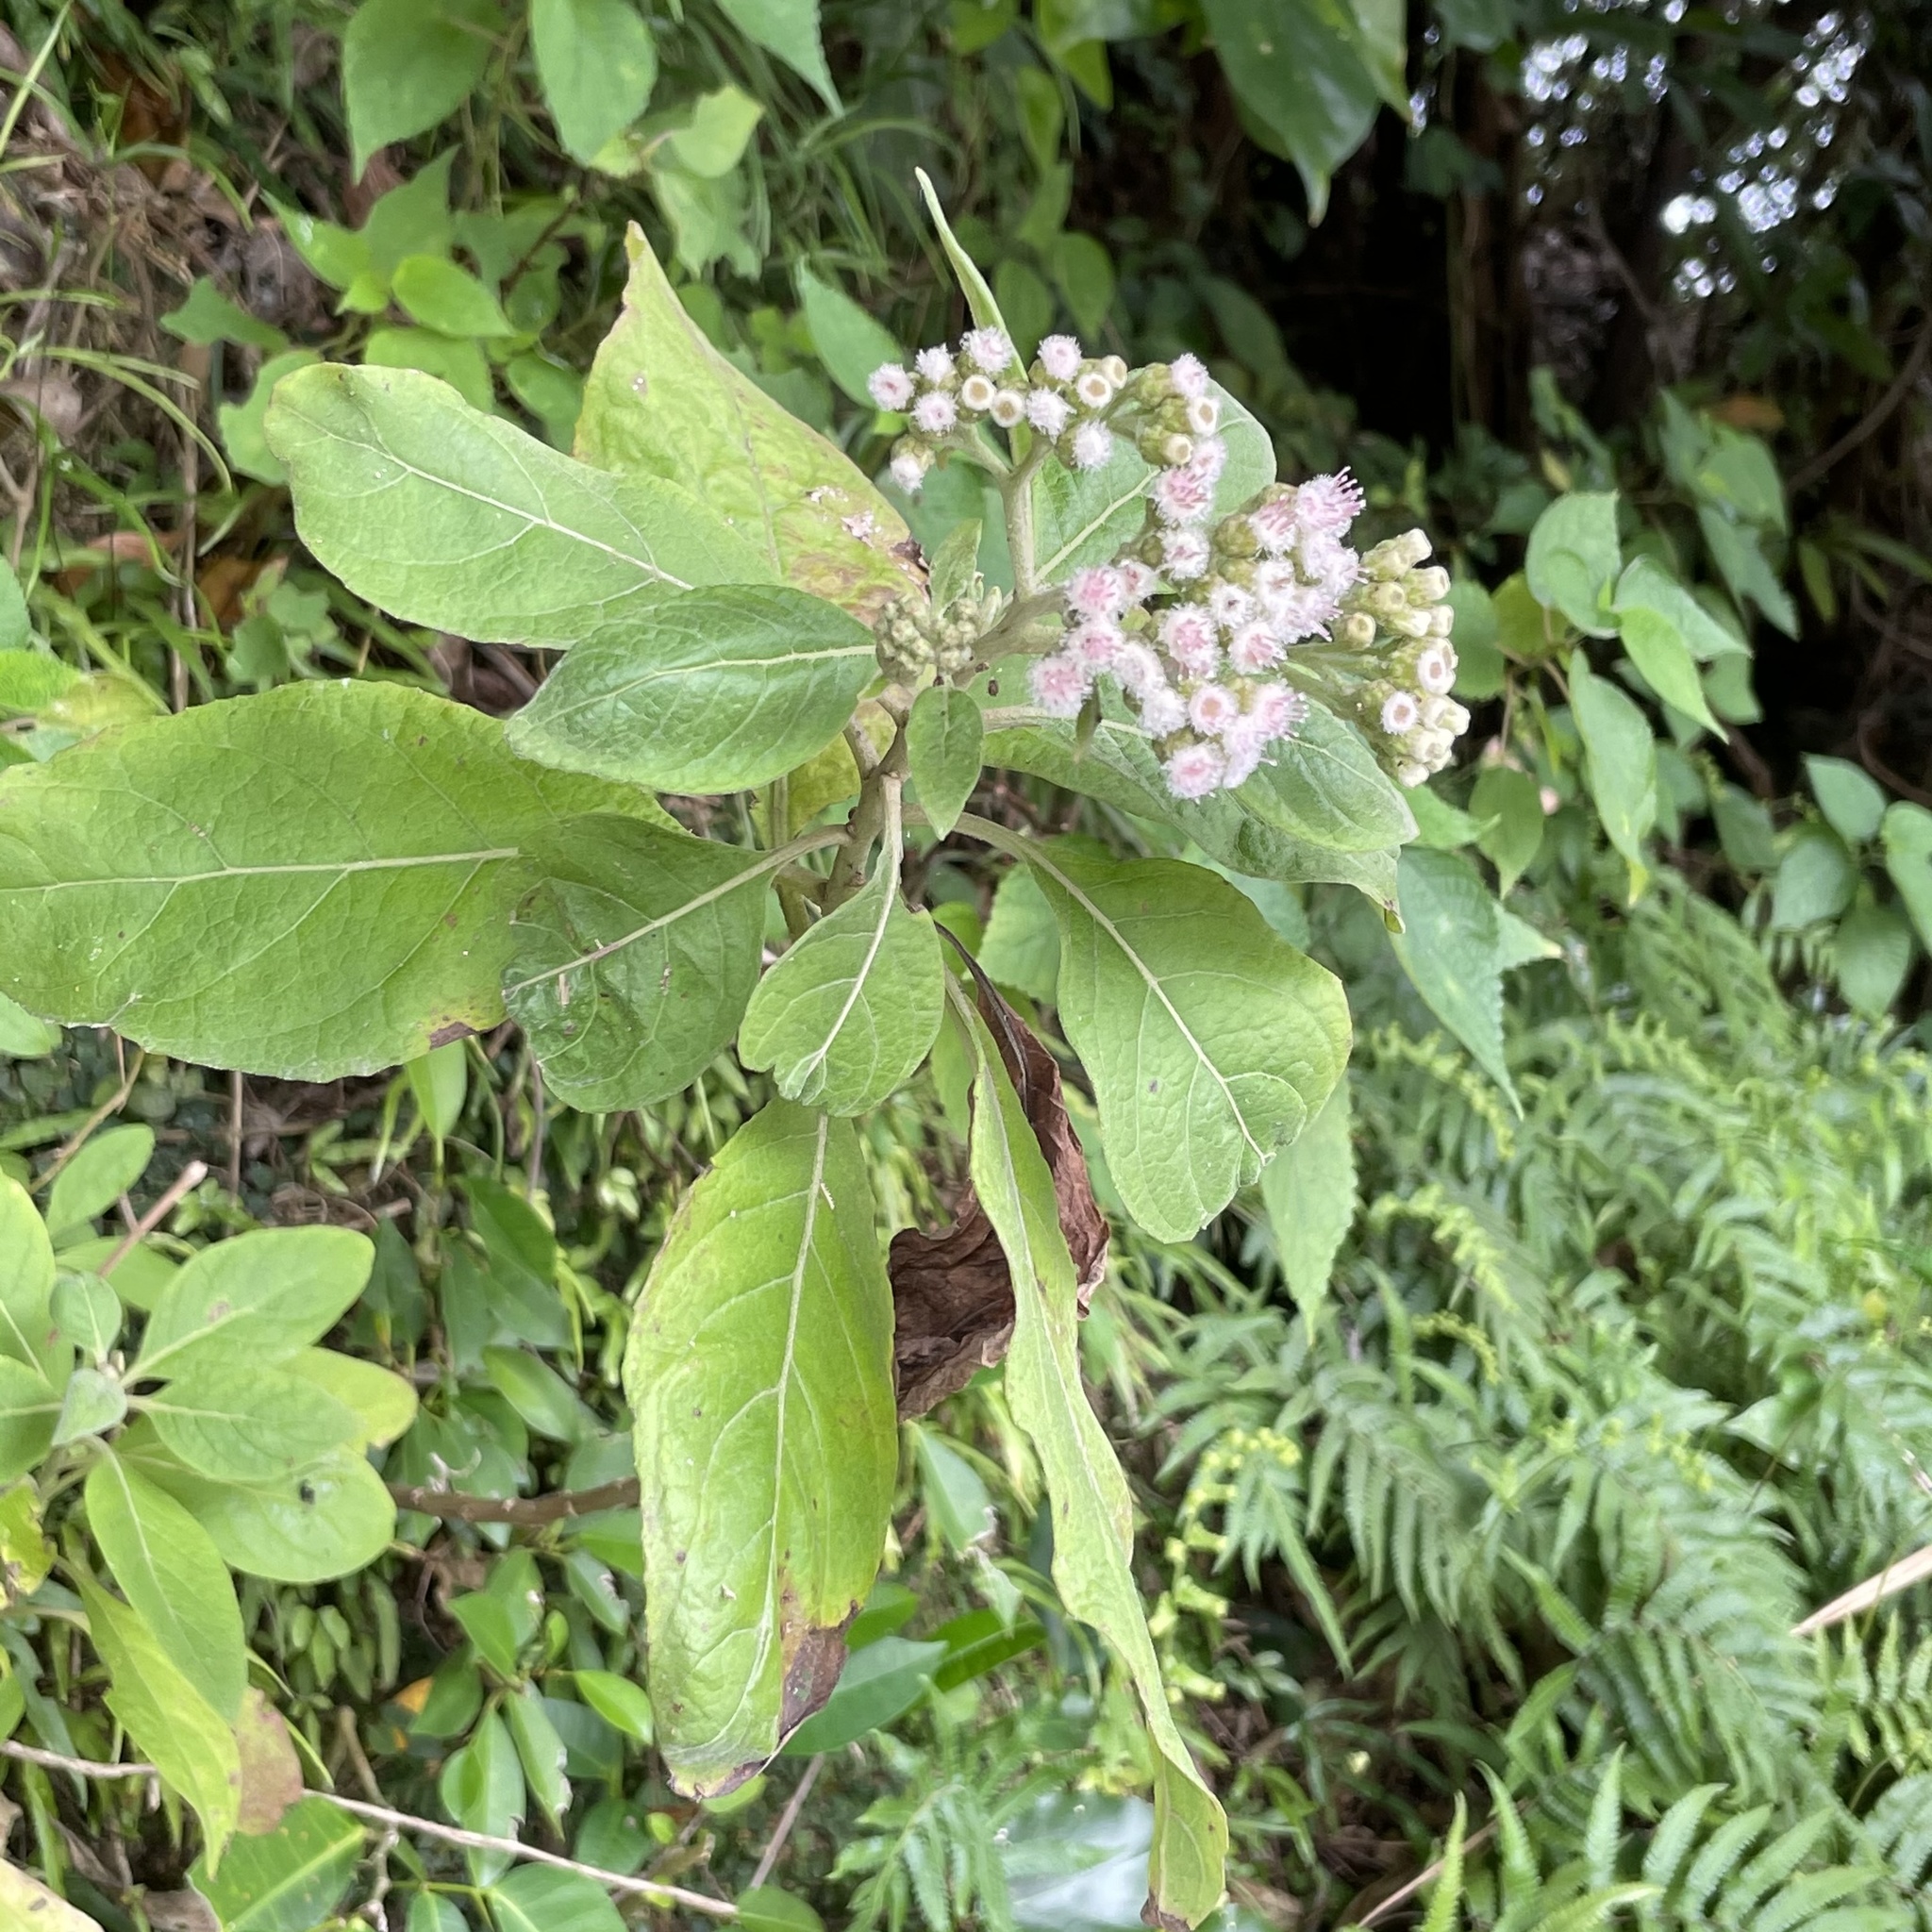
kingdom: Plantae
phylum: Tracheophyta
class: Magnoliopsida
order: Asterales
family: Asteraceae
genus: Pluchea
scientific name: Pluchea carolinensis
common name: Marsh fleabane
